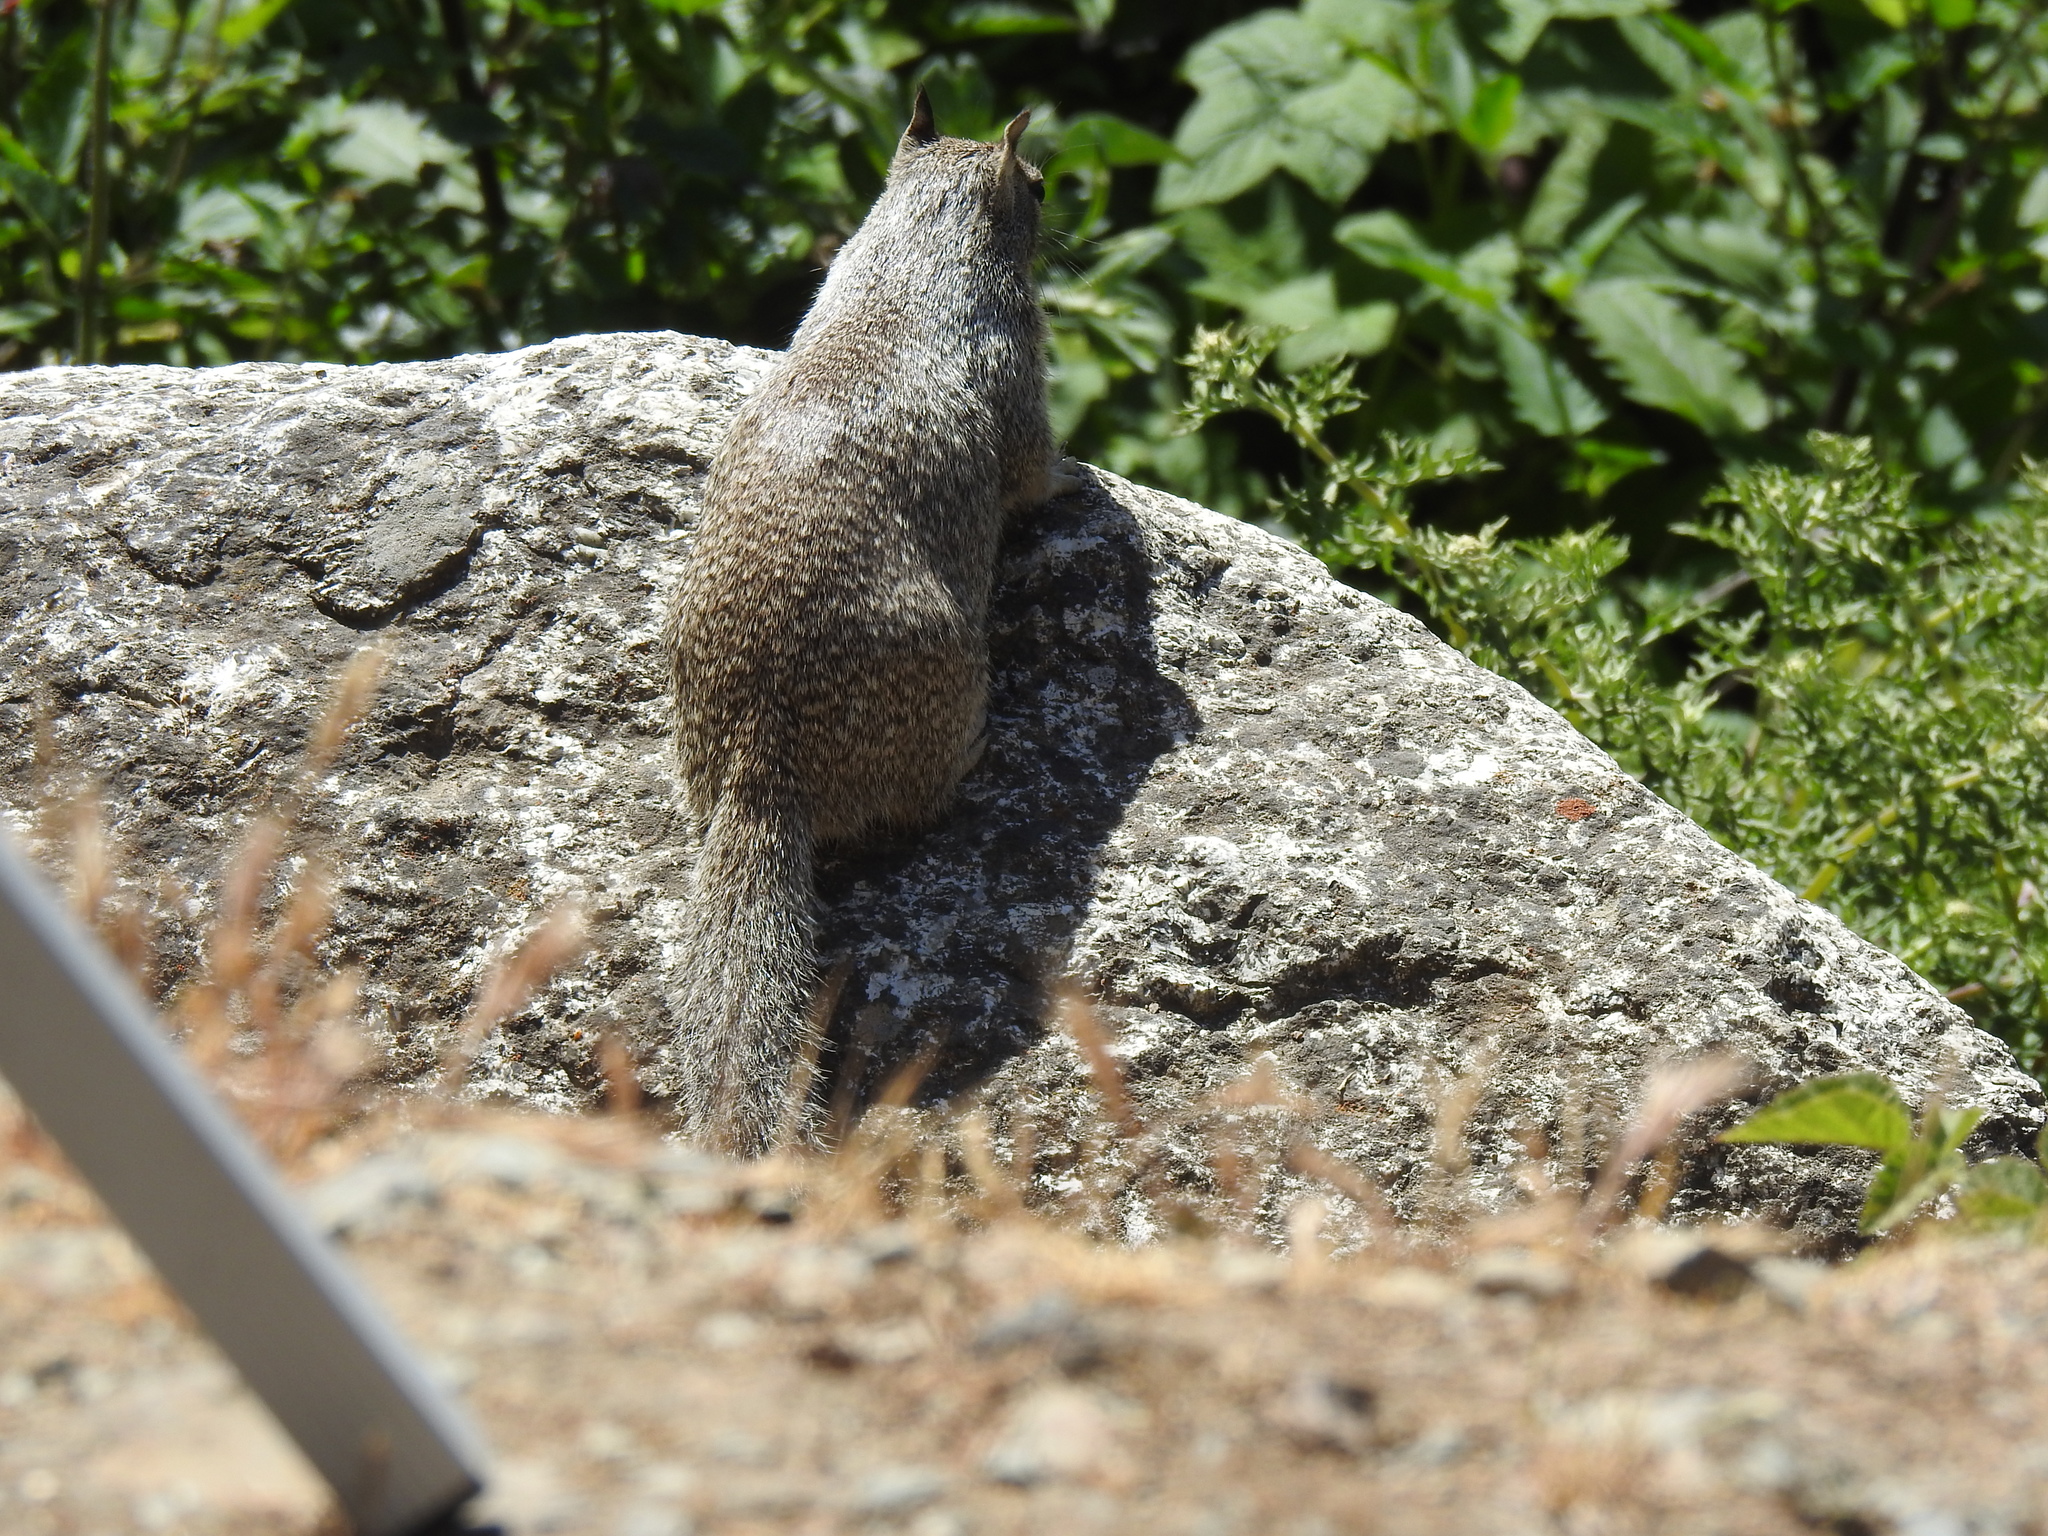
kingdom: Animalia
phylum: Chordata
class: Mammalia
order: Rodentia
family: Sciuridae
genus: Otospermophilus
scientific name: Otospermophilus beecheyi
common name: California ground squirrel
